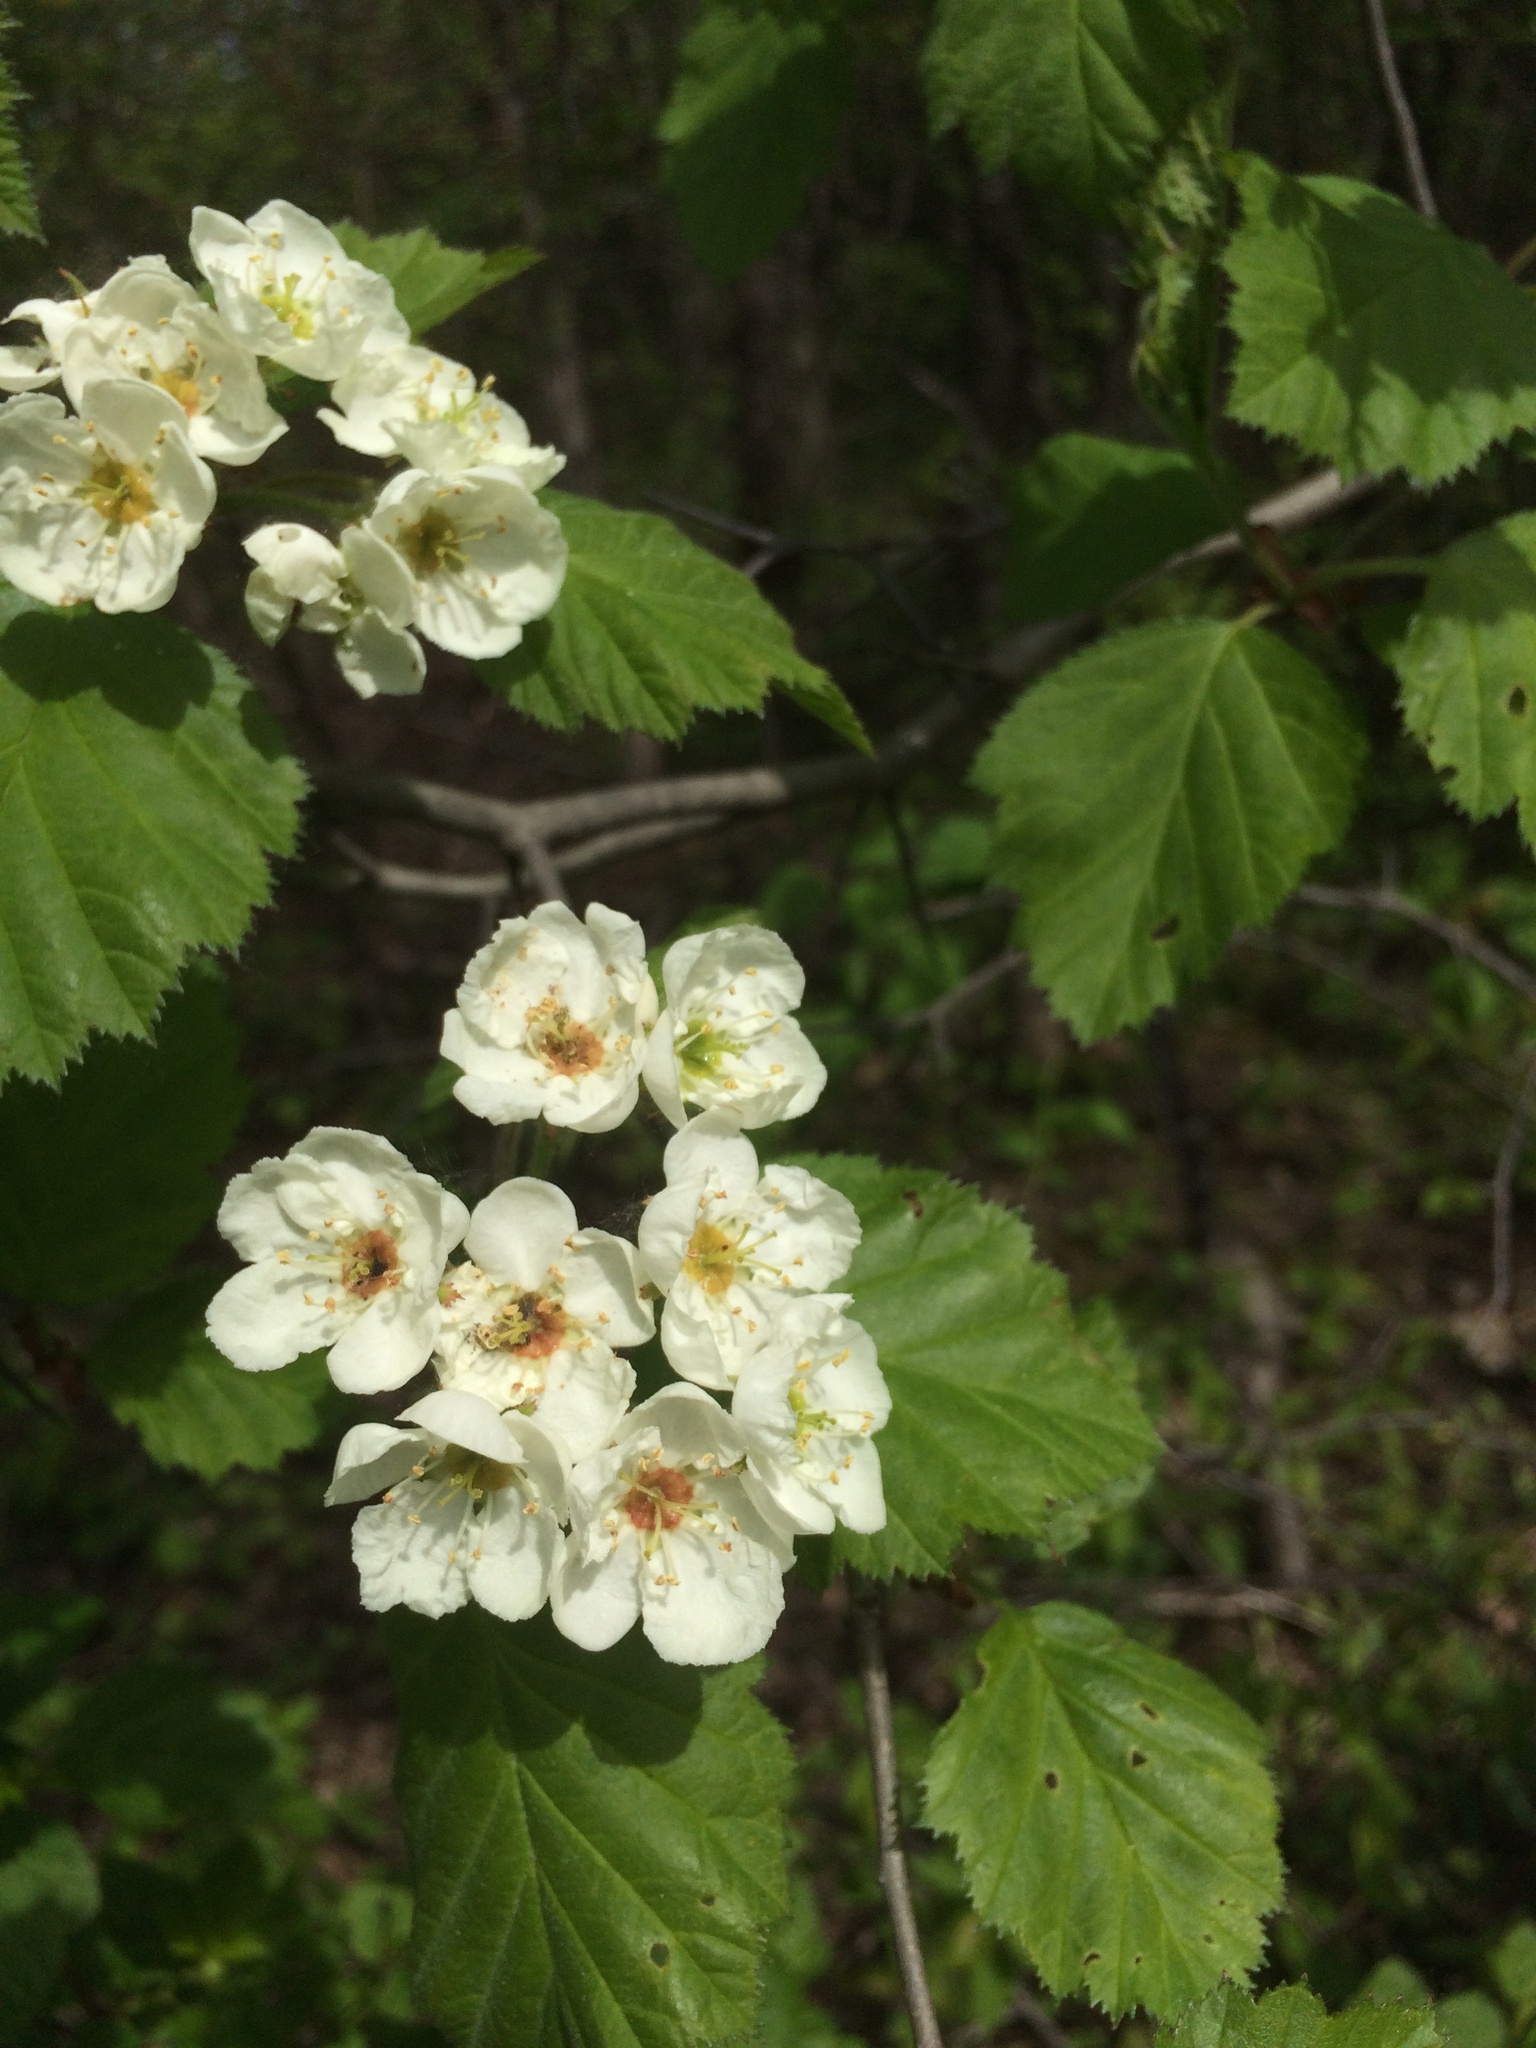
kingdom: Plantae
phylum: Tracheophyta
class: Magnoliopsida
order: Rosales
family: Rosaceae
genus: Crataegus
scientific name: Crataegus submollis
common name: Hairy cockspurthorn
